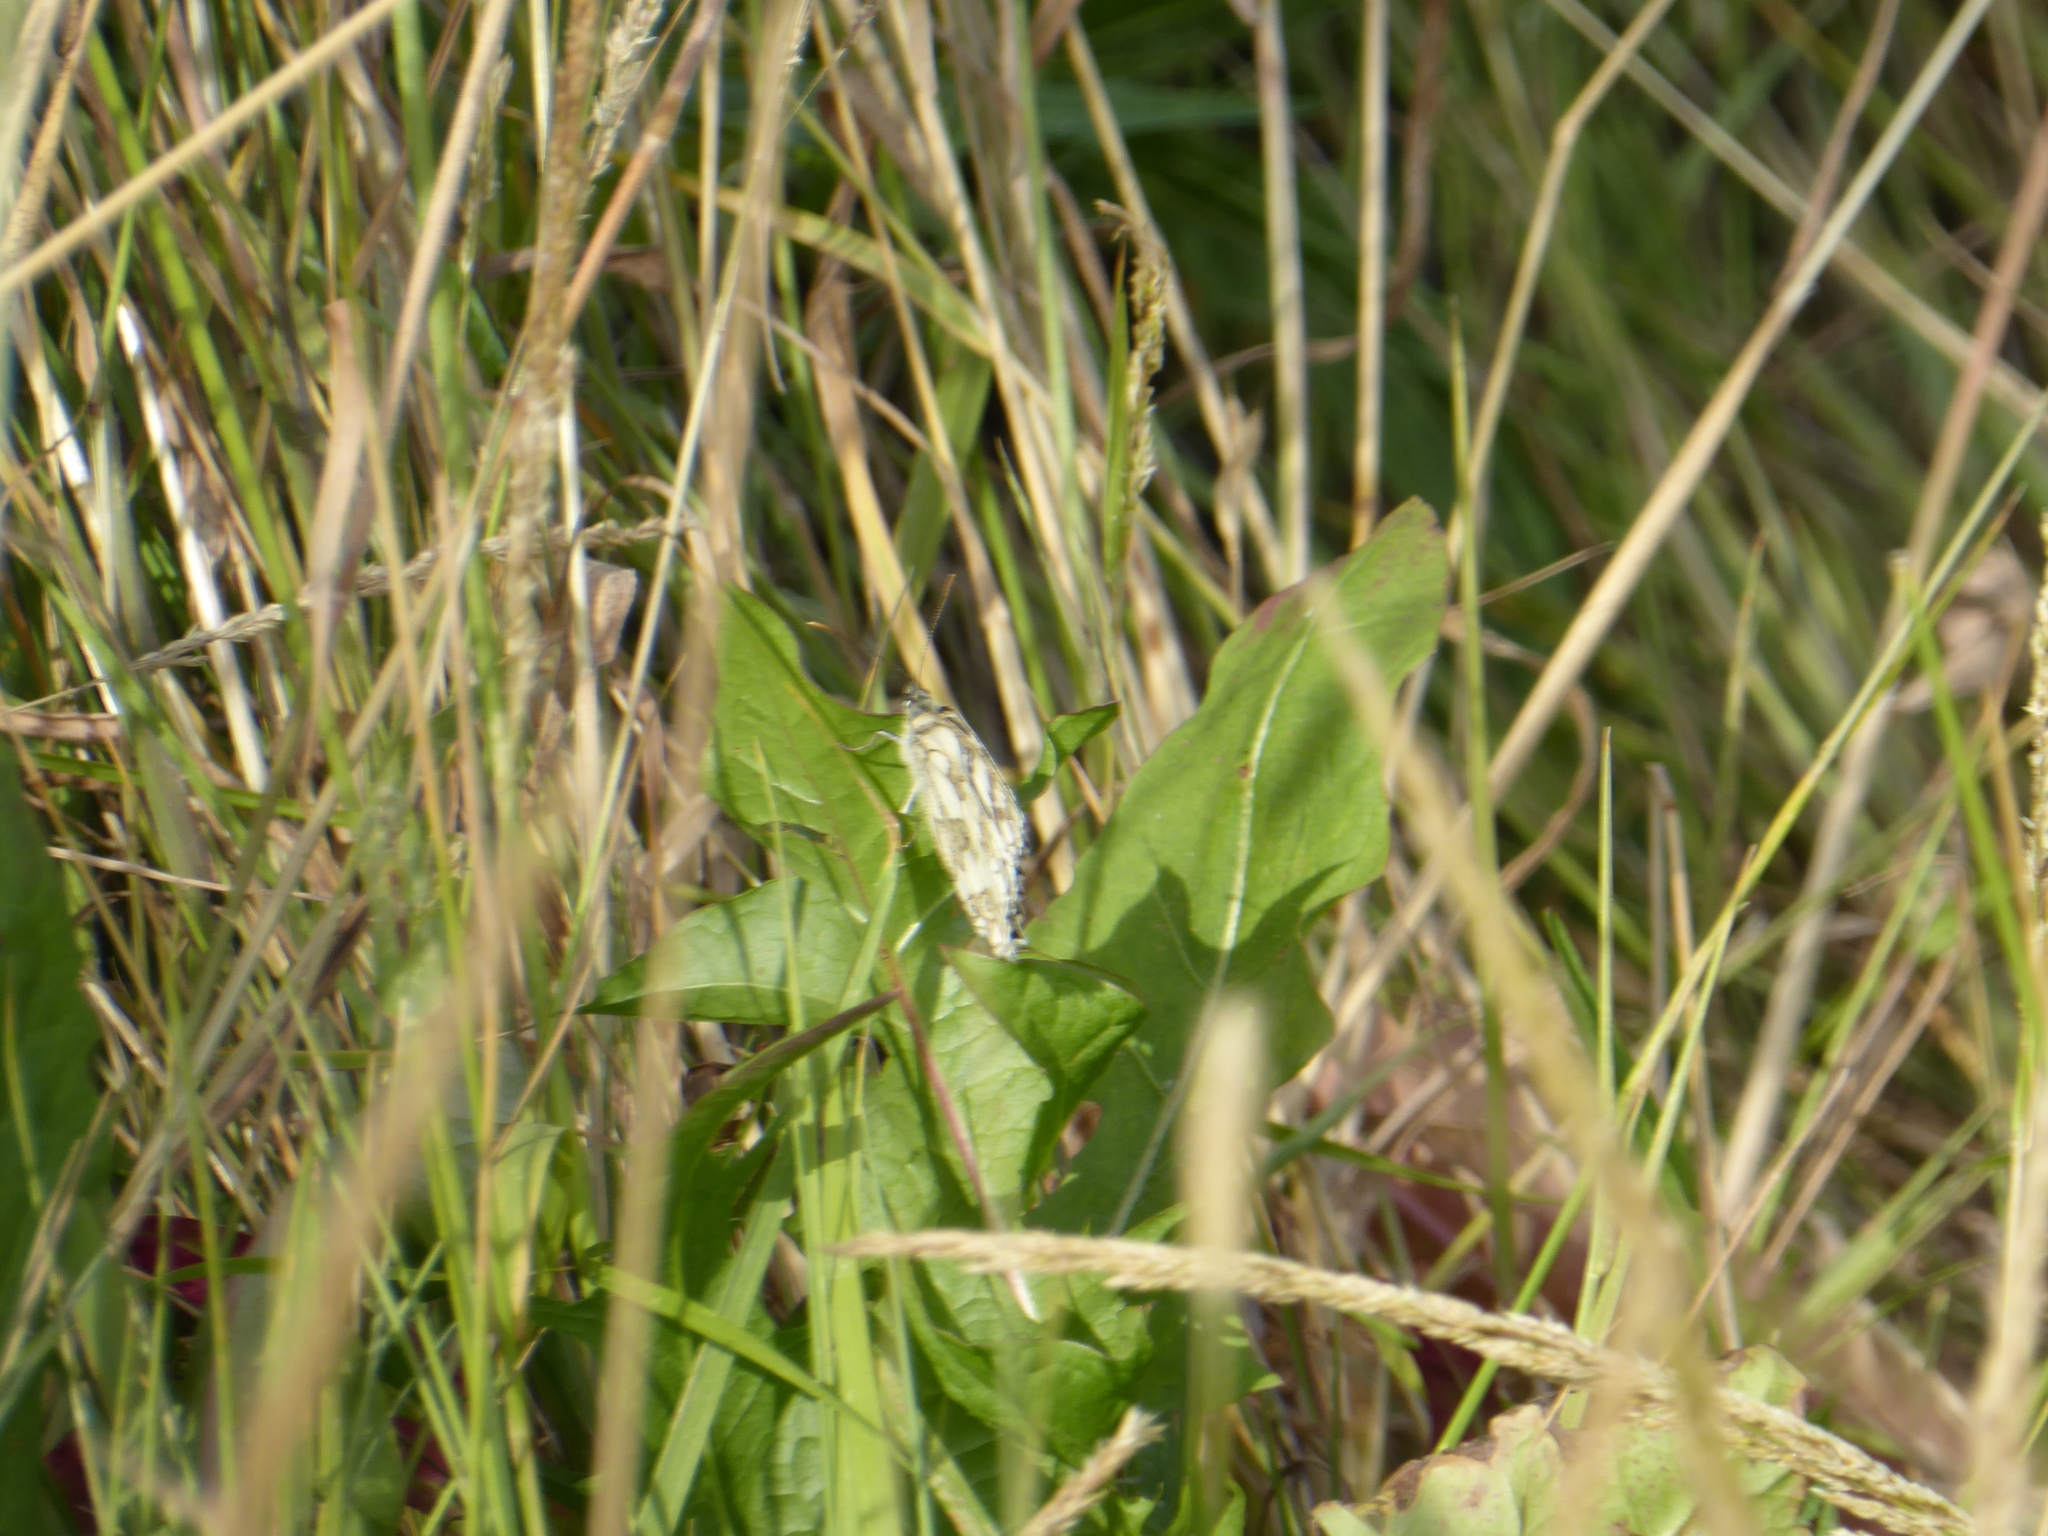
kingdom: Animalia
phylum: Arthropoda
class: Insecta
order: Lepidoptera
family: Nymphalidae
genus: Melanargia
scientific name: Melanargia galathea
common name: Marbled white
